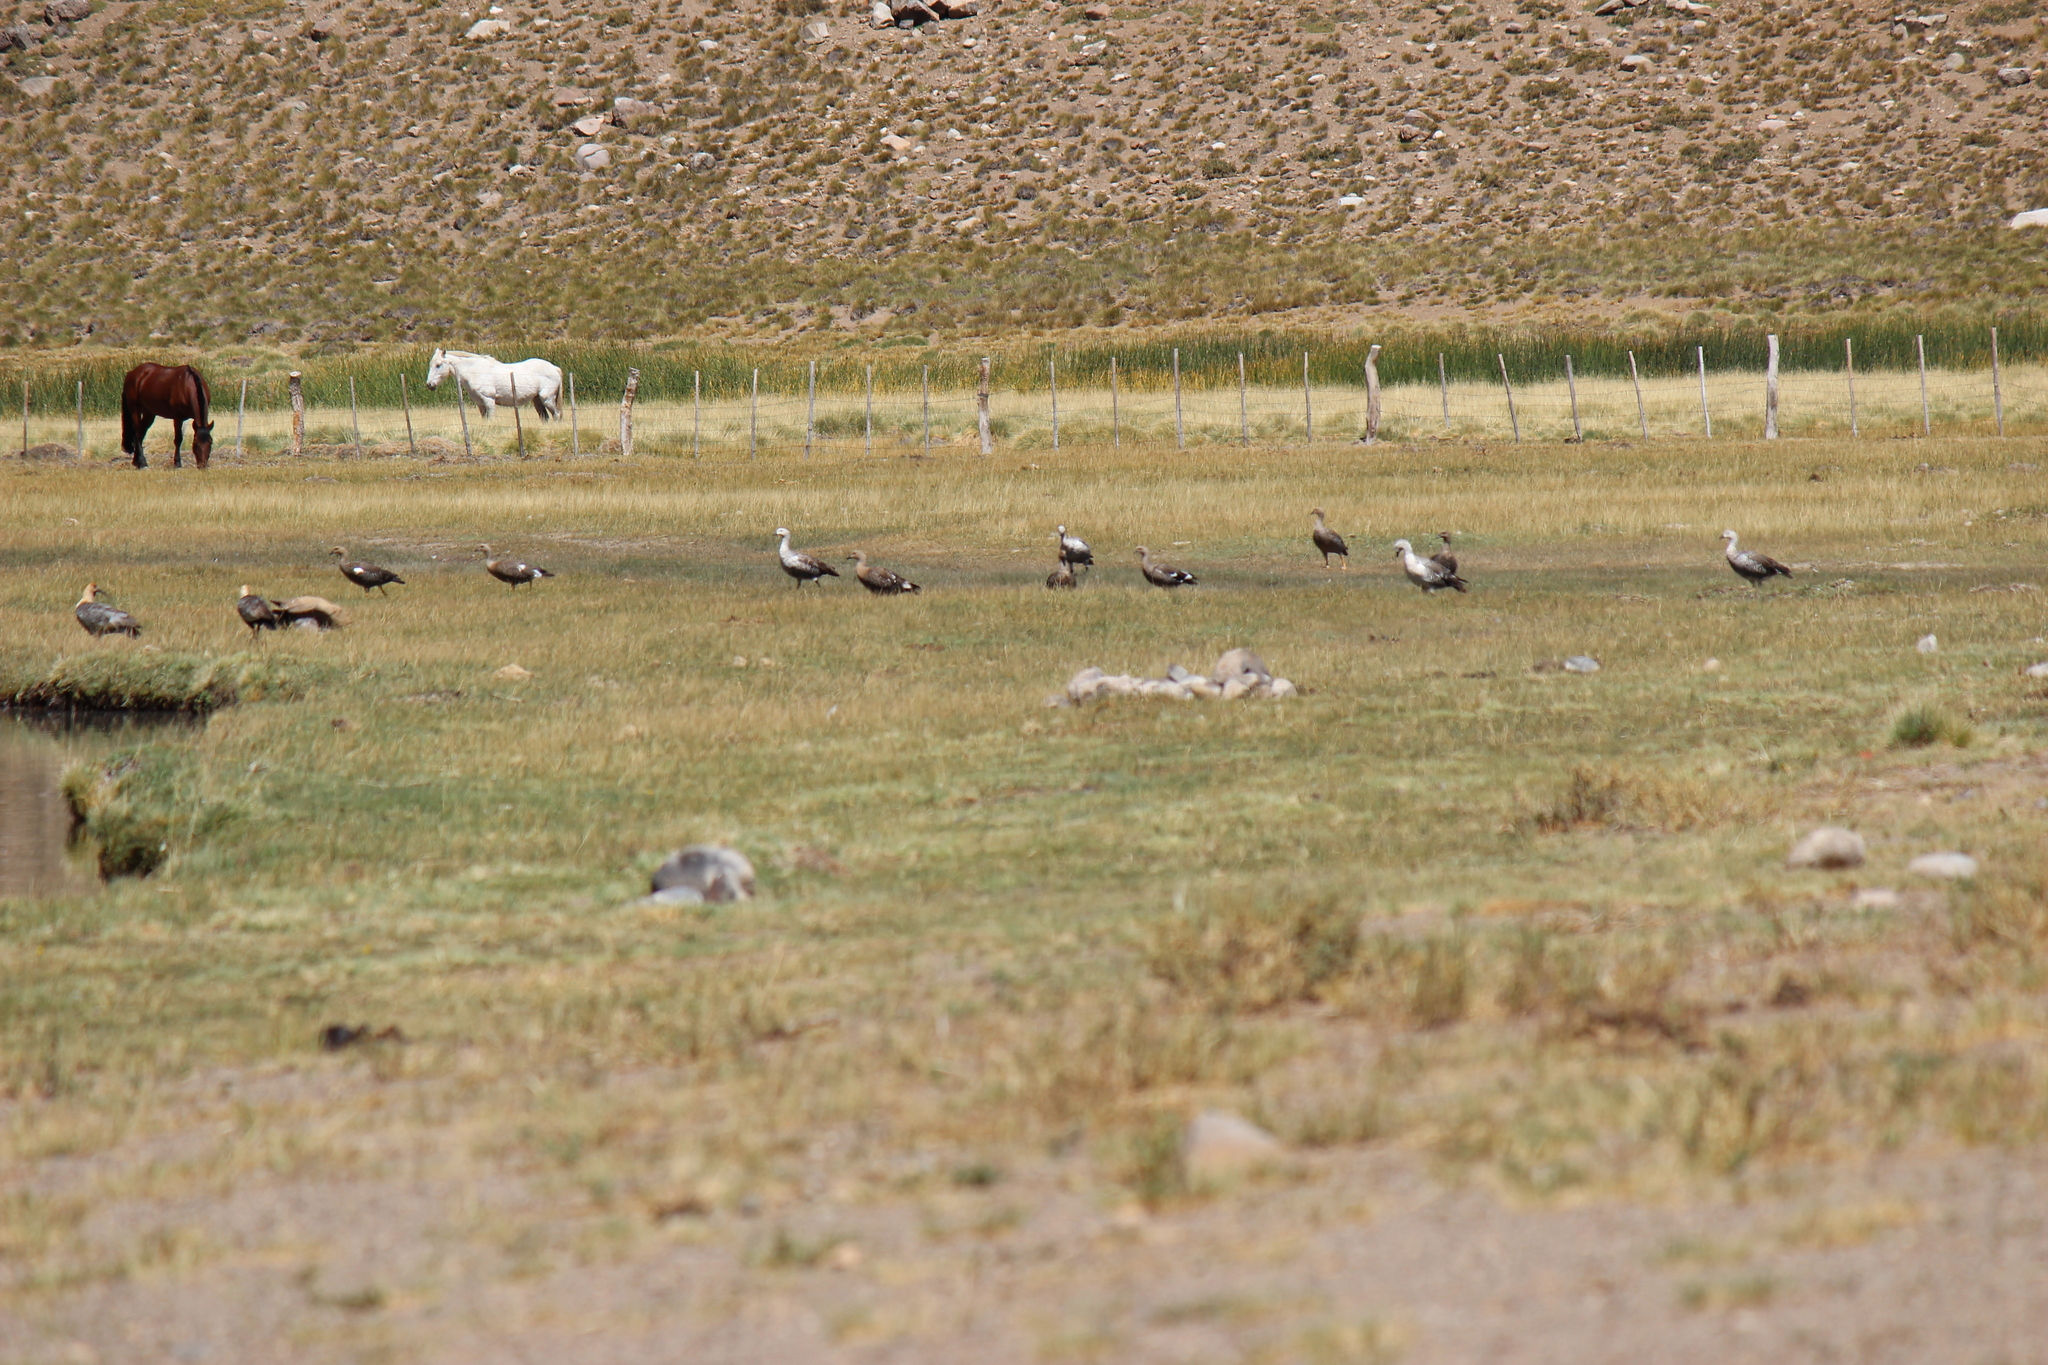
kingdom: Animalia
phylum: Chordata
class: Aves
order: Anseriformes
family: Anatidae
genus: Chloephaga
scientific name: Chloephaga picta
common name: Upland goose
